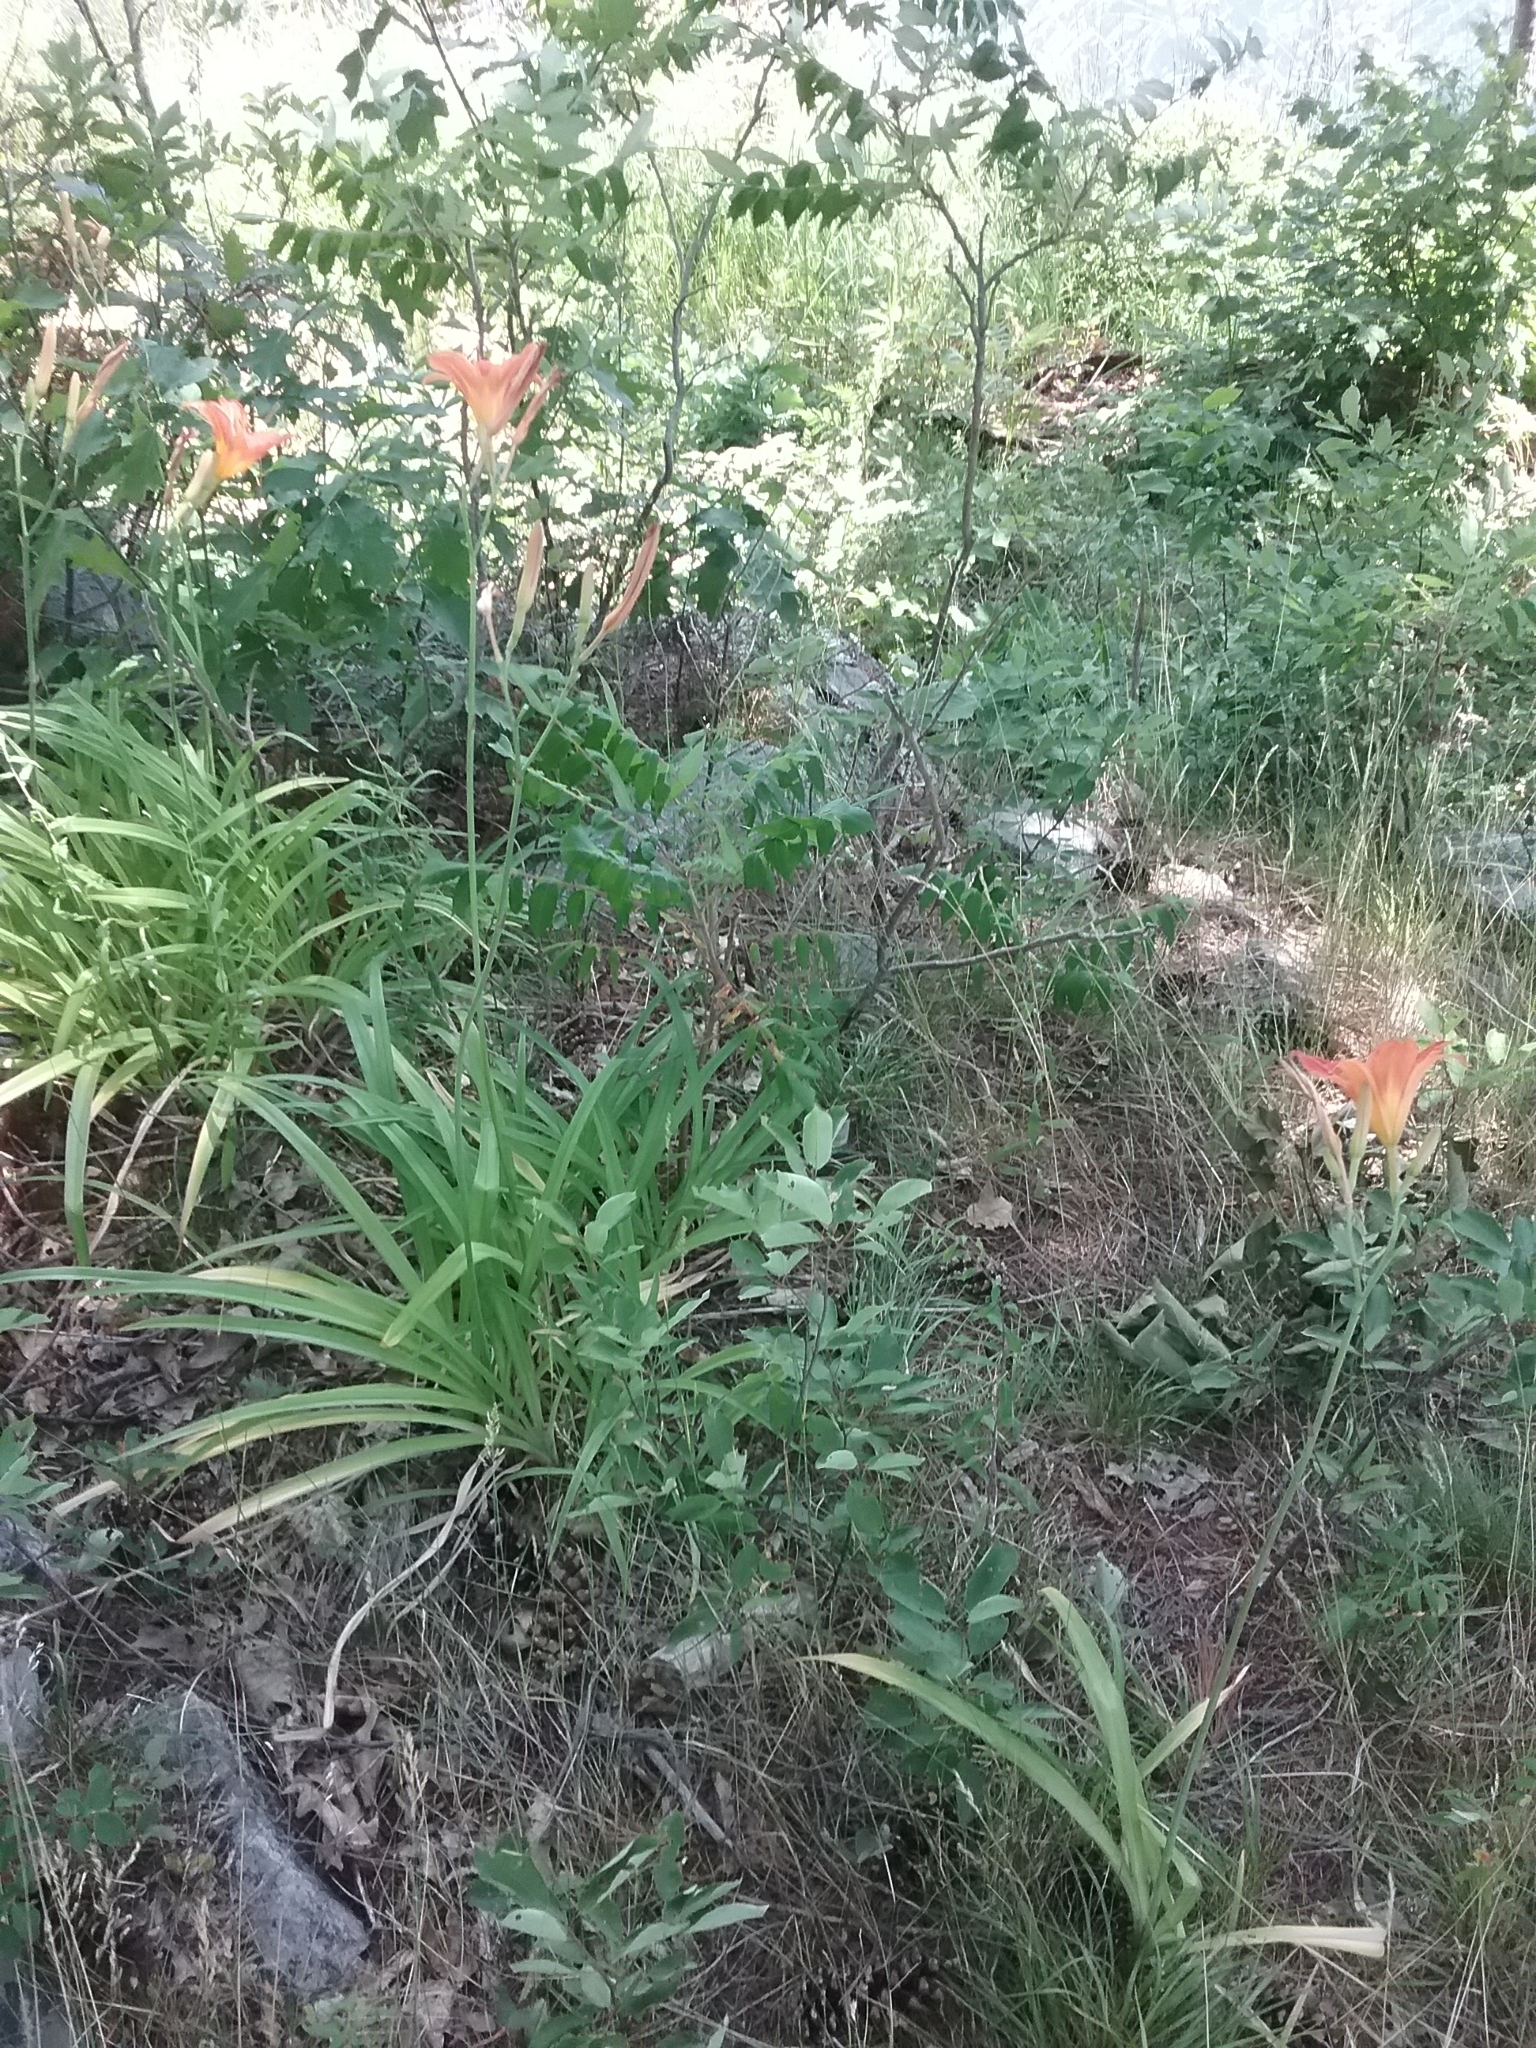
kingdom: Plantae
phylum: Tracheophyta
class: Liliopsida
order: Asparagales
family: Asphodelaceae
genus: Hemerocallis
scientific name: Hemerocallis fulva
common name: Orange day-lily
